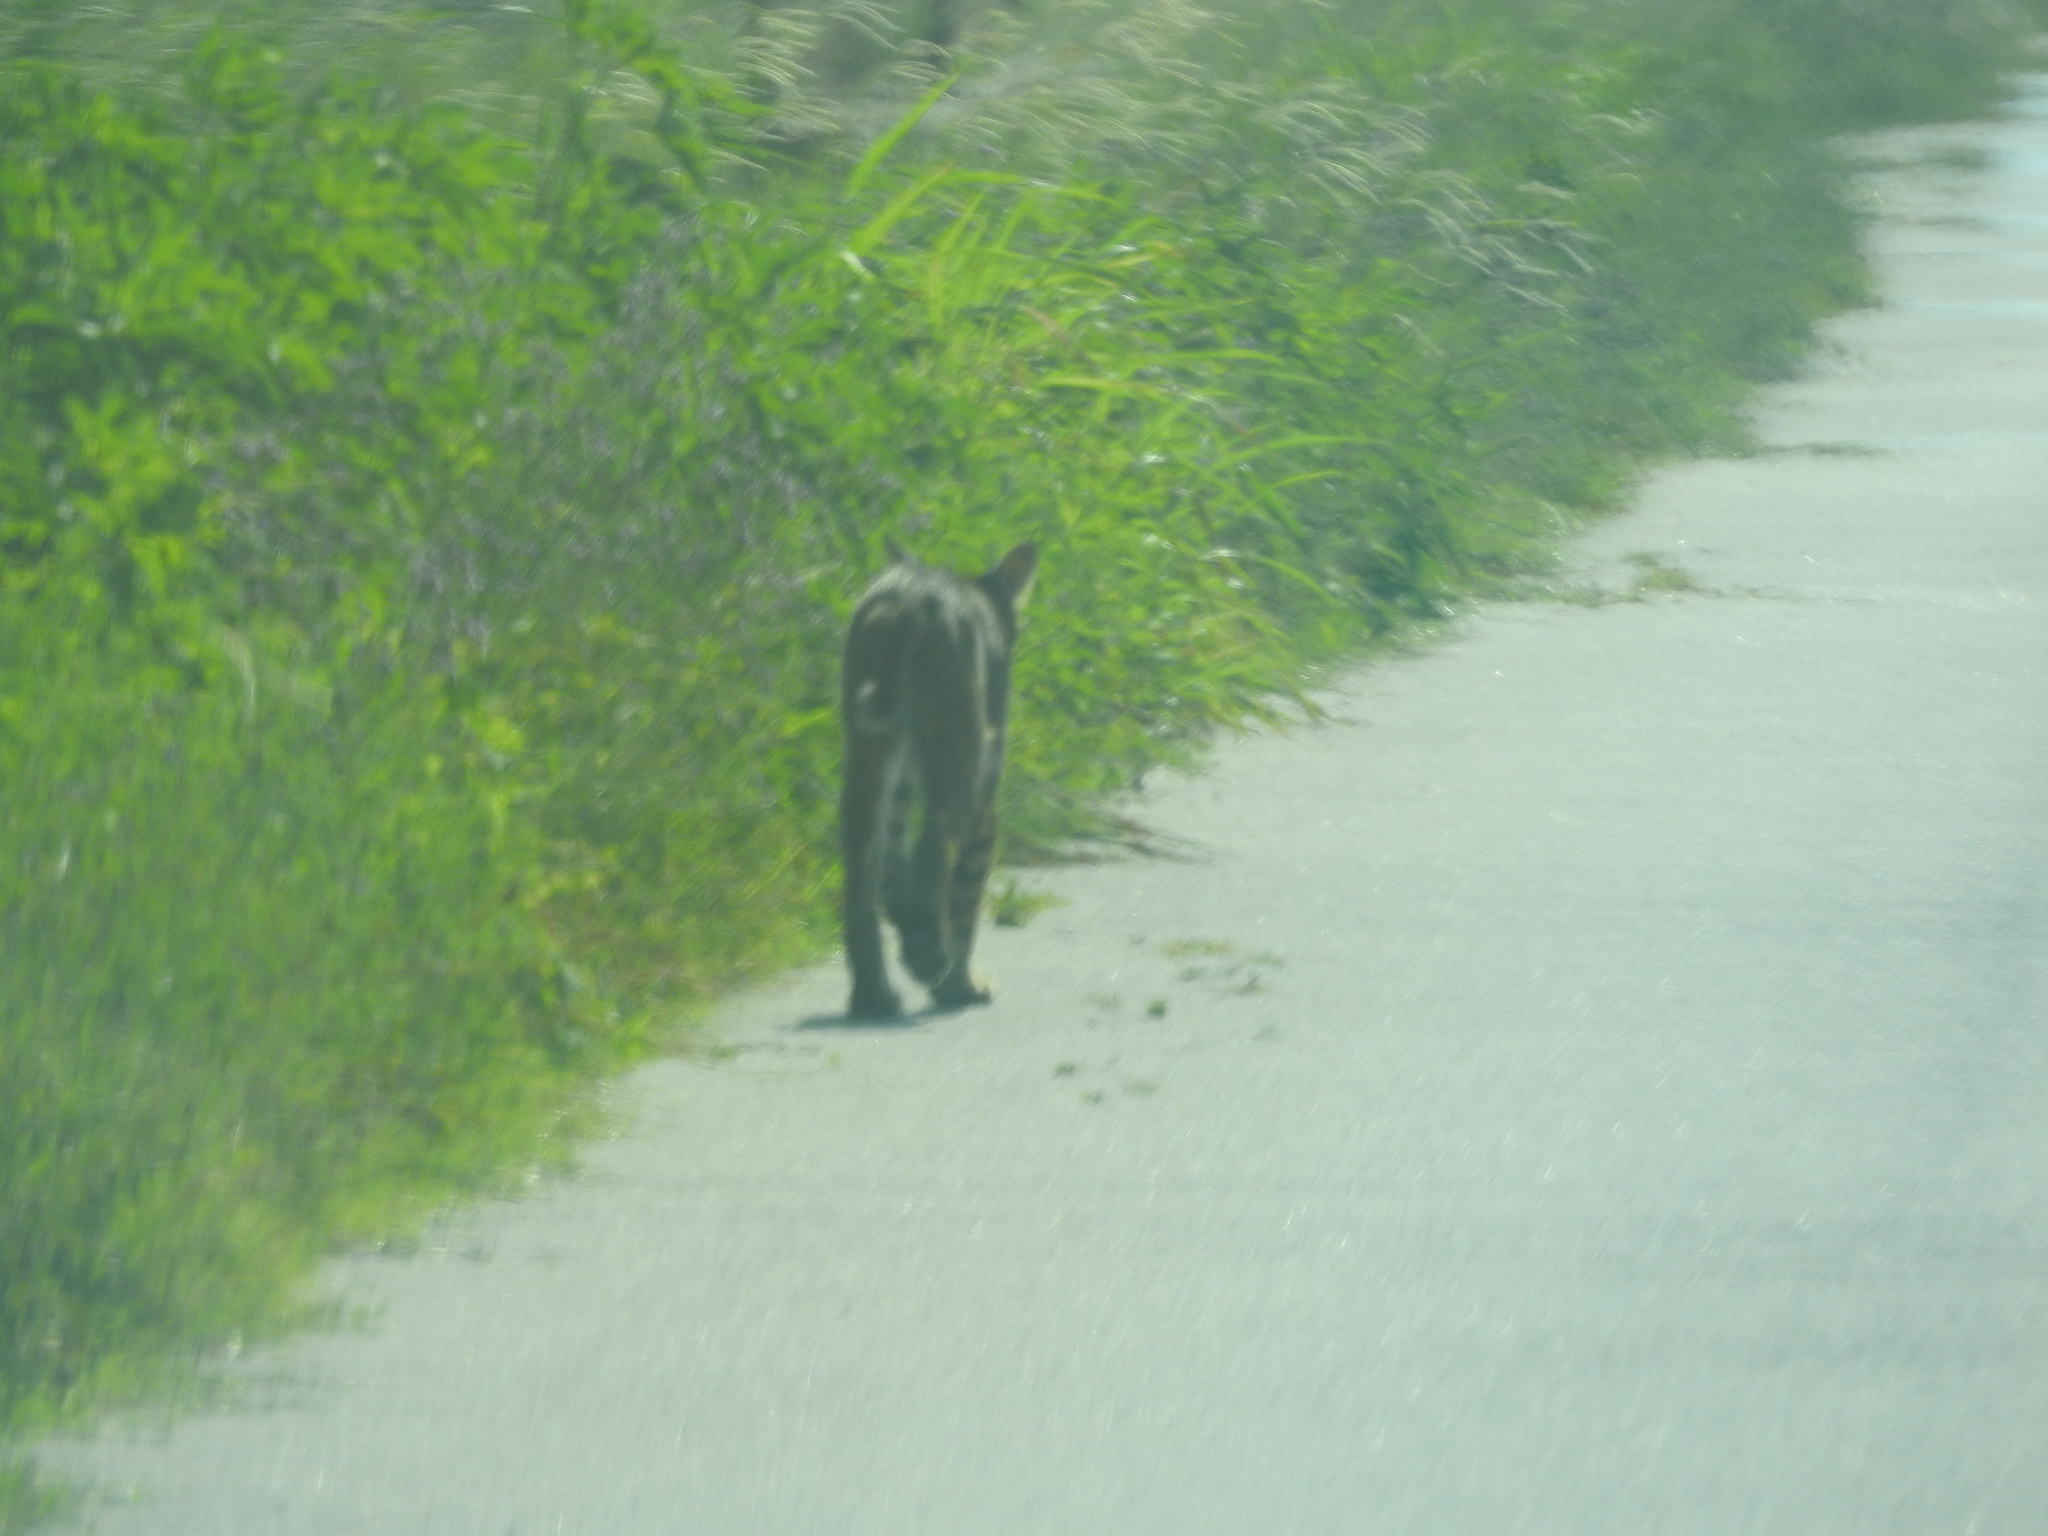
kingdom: Animalia
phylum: Chordata
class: Mammalia
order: Carnivora
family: Felidae
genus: Lynx
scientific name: Lynx rufus
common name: Bobcat
